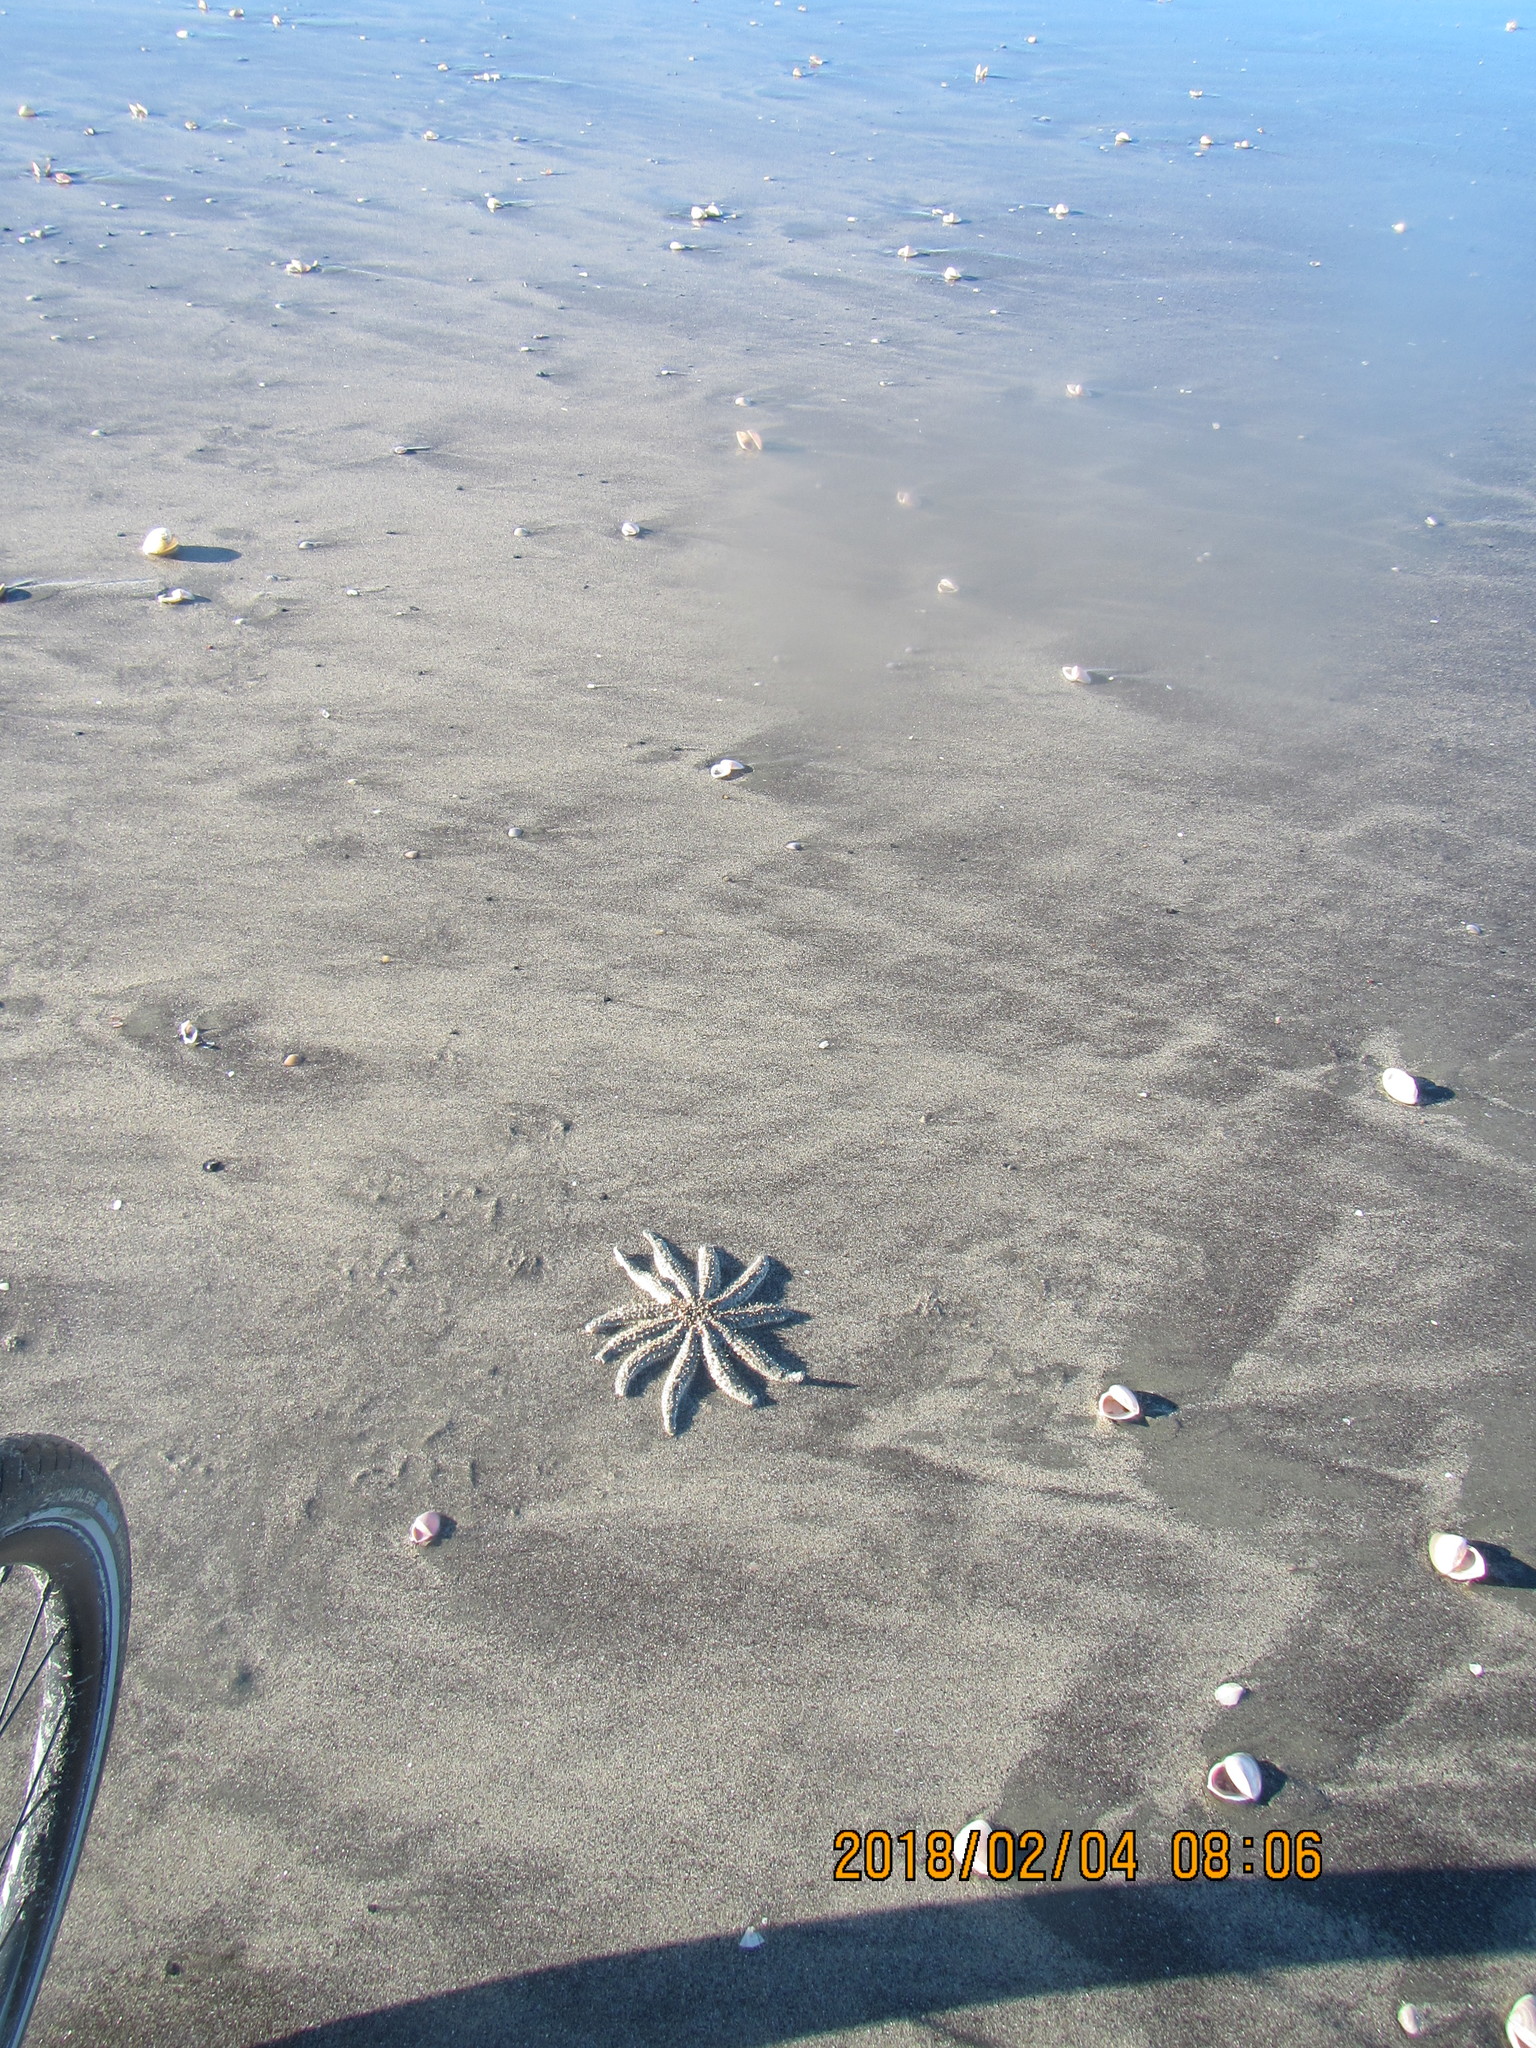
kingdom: Animalia
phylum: Echinodermata
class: Asteroidea
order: Forcipulatida
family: Asteriidae
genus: Coscinasterias
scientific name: Coscinasterias muricata
